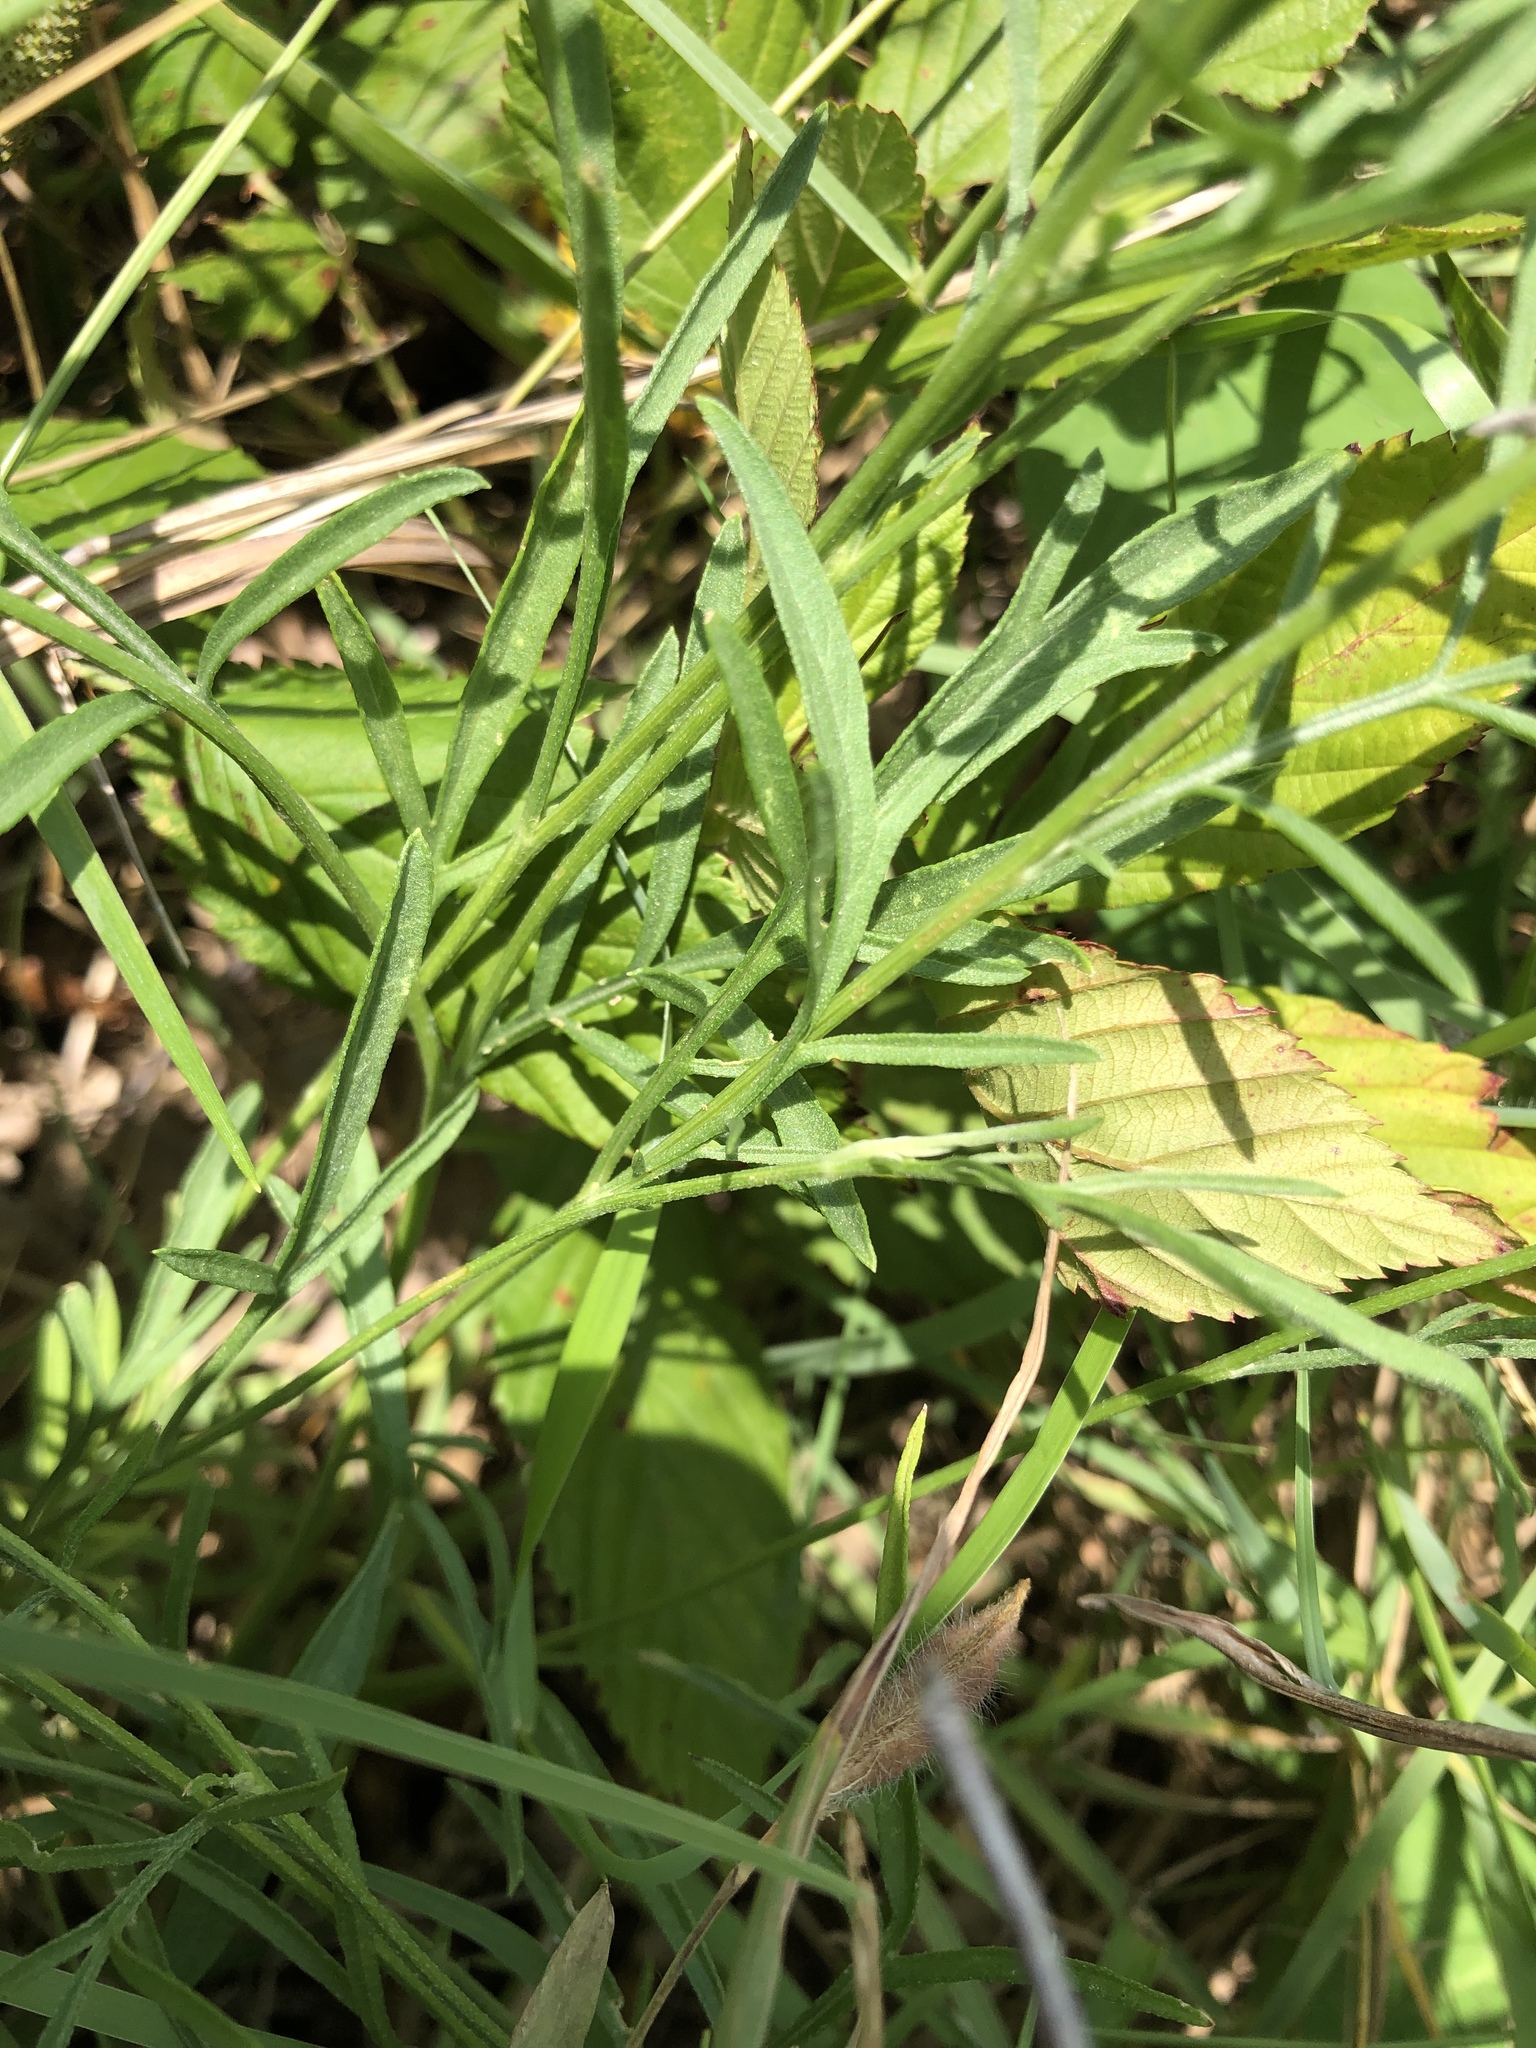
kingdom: Plantae
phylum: Tracheophyta
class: Magnoliopsida
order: Asterales
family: Asteraceae
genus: Ratibida
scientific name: Ratibida columnifera
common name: Prairie coneflower
